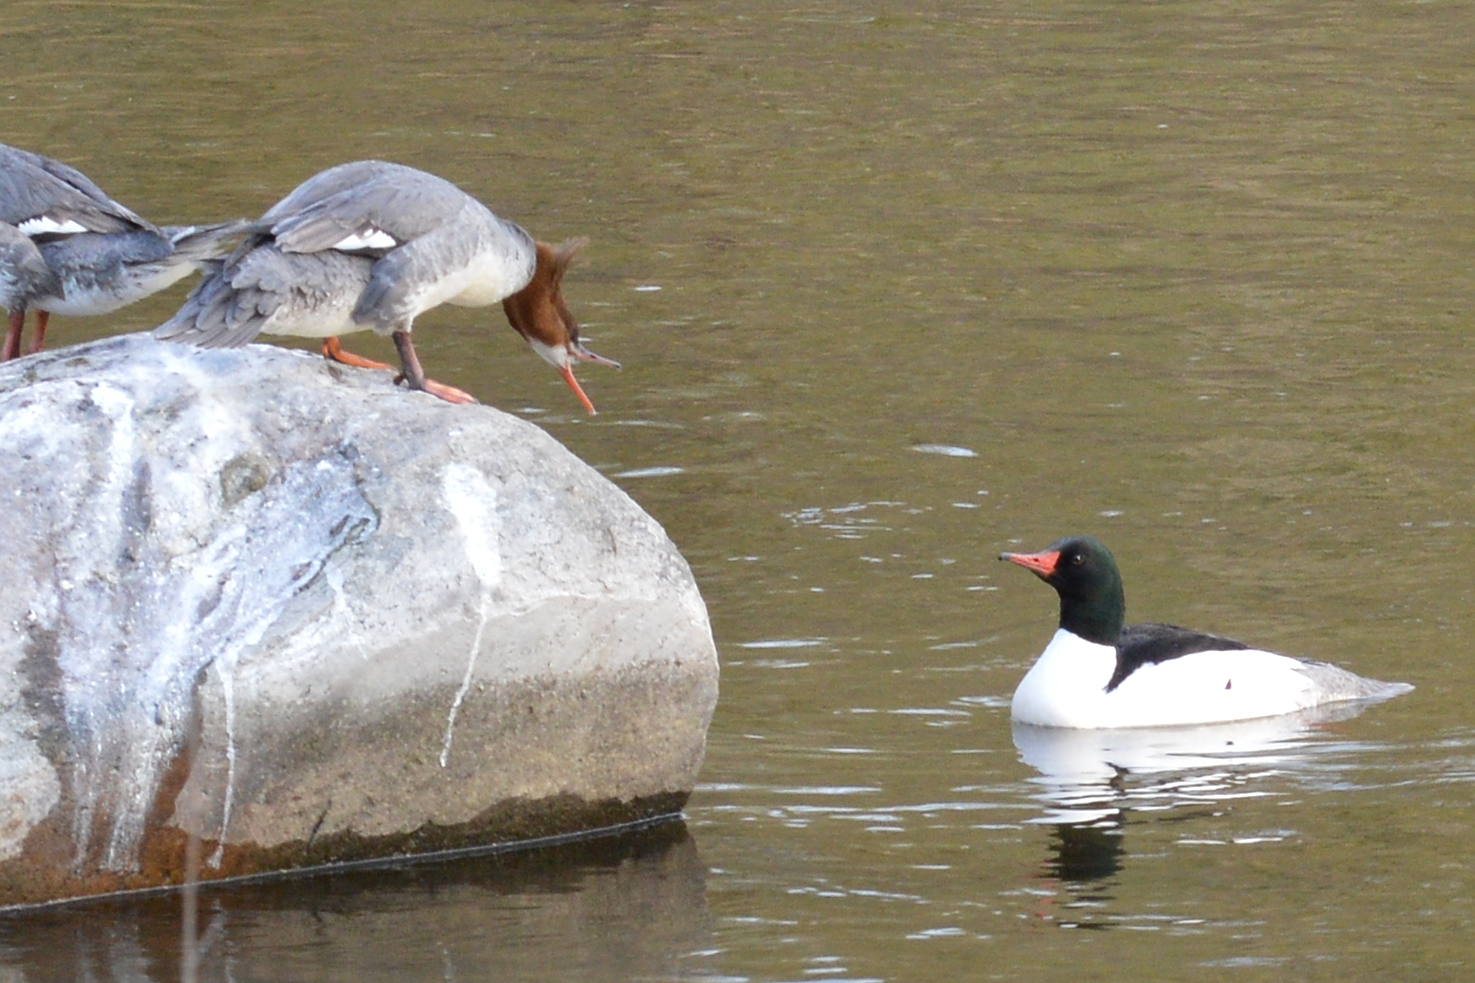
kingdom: Animalia
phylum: Chordata
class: Aves
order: Anseriformes
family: Anatidae
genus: Mergus
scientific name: Mergus merganser
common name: Common merganser
